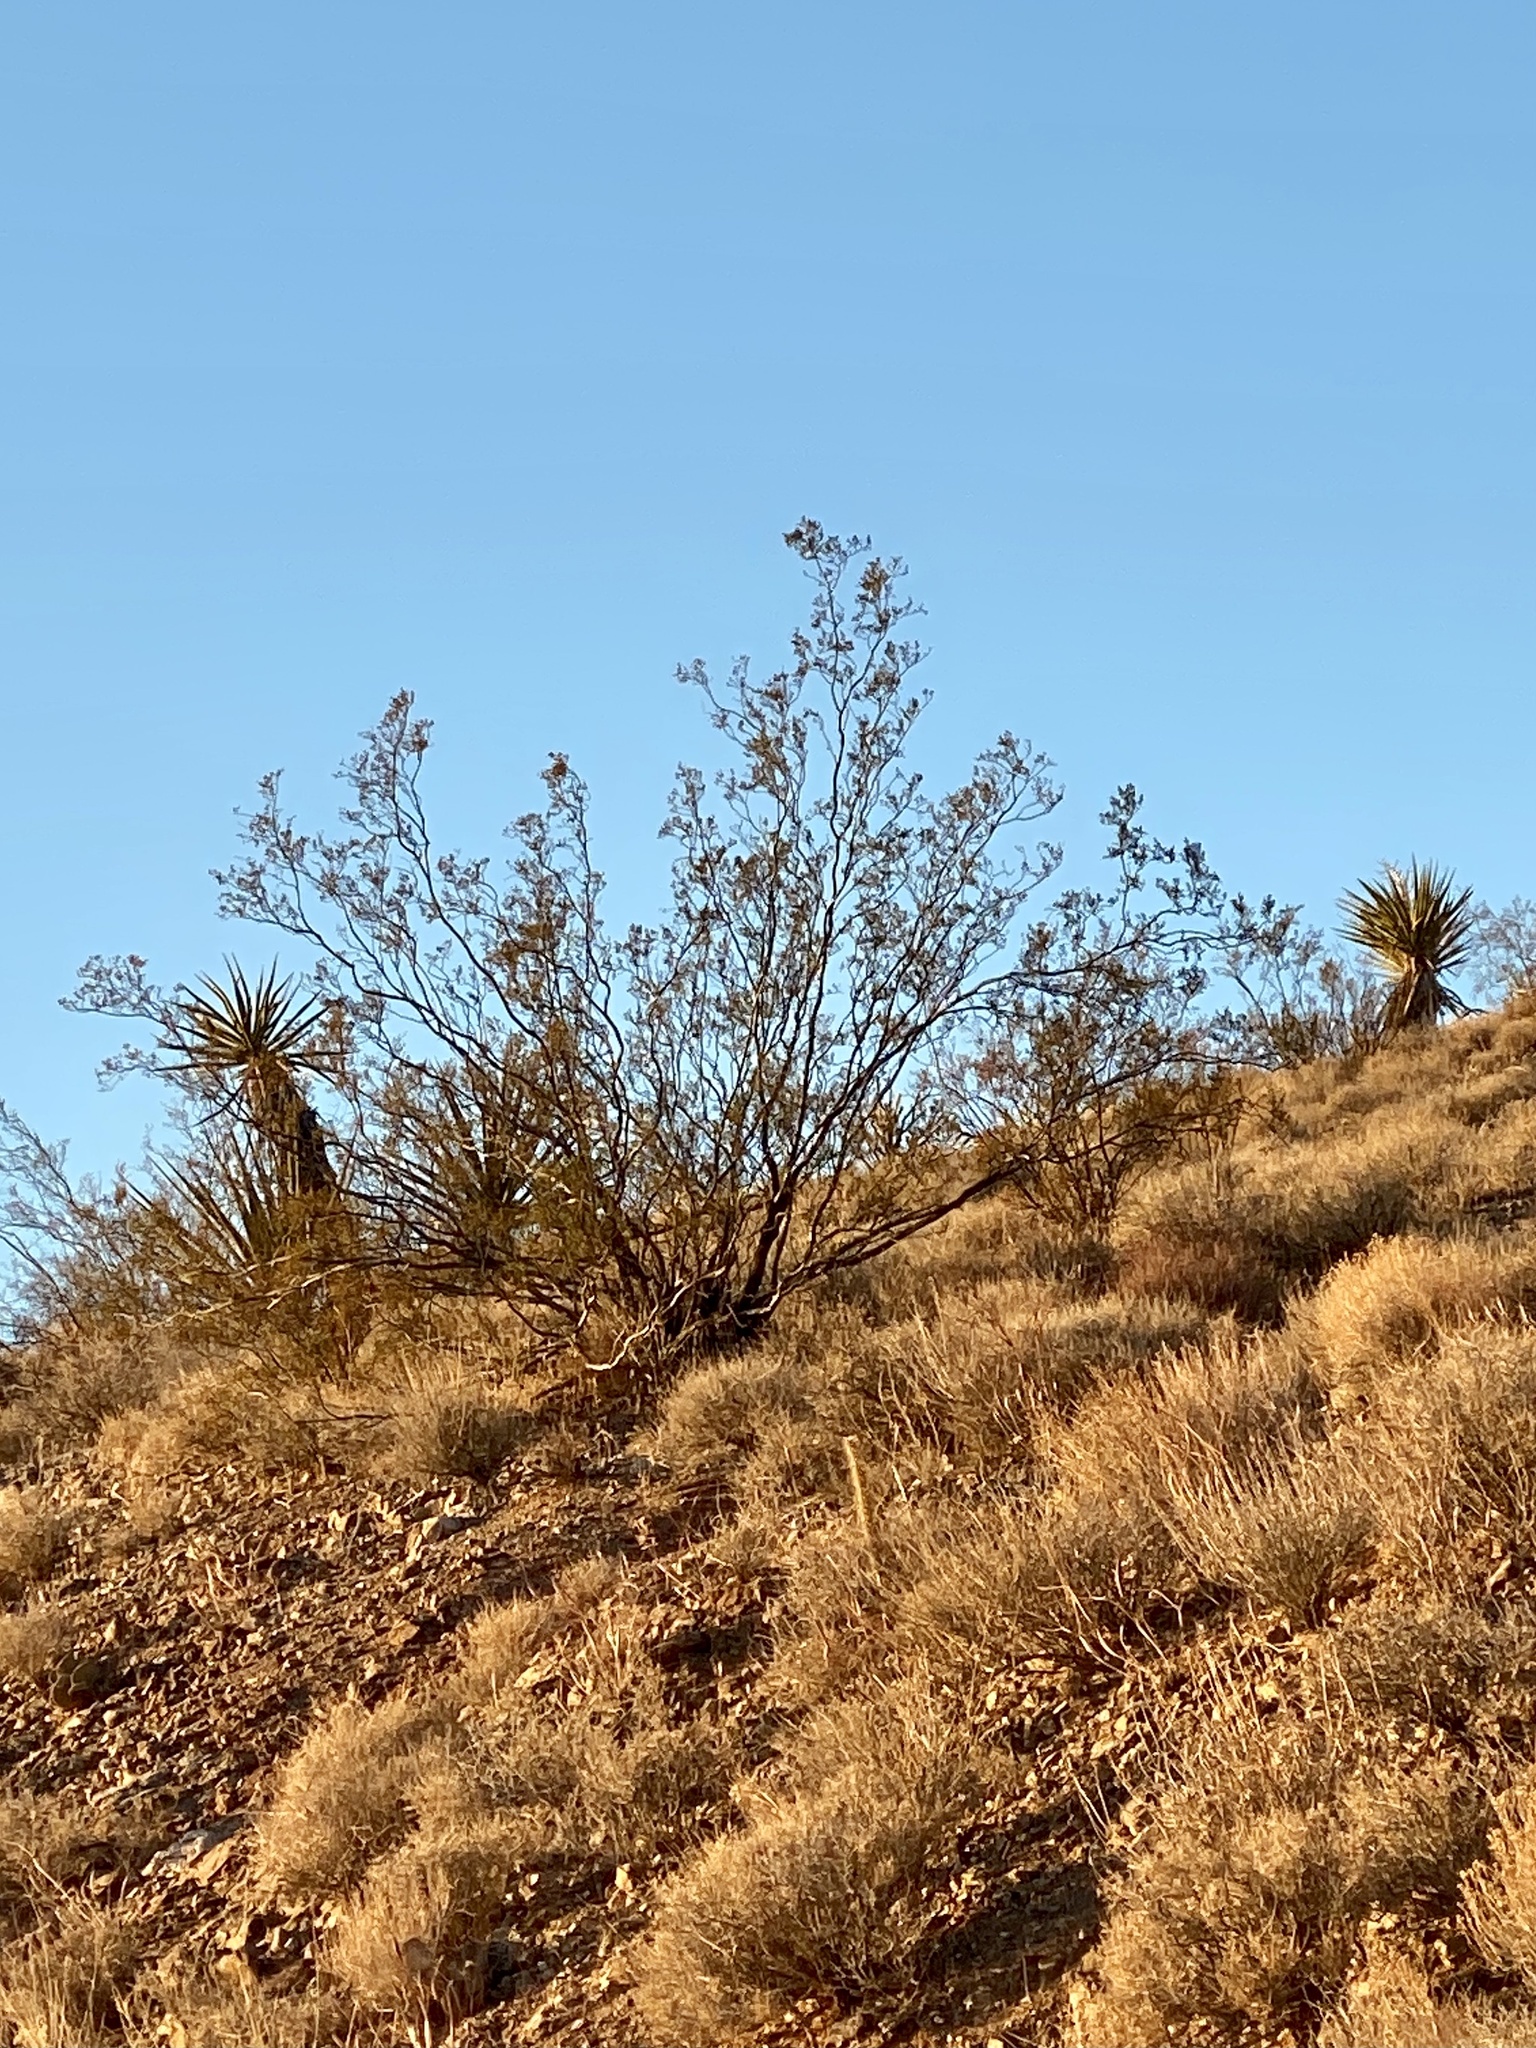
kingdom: Plantae
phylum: Tracheophyta
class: Magnoliopsida
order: Zygophyllales
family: Zygophyllaceae
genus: Larrea
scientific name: Larrea tridentata
